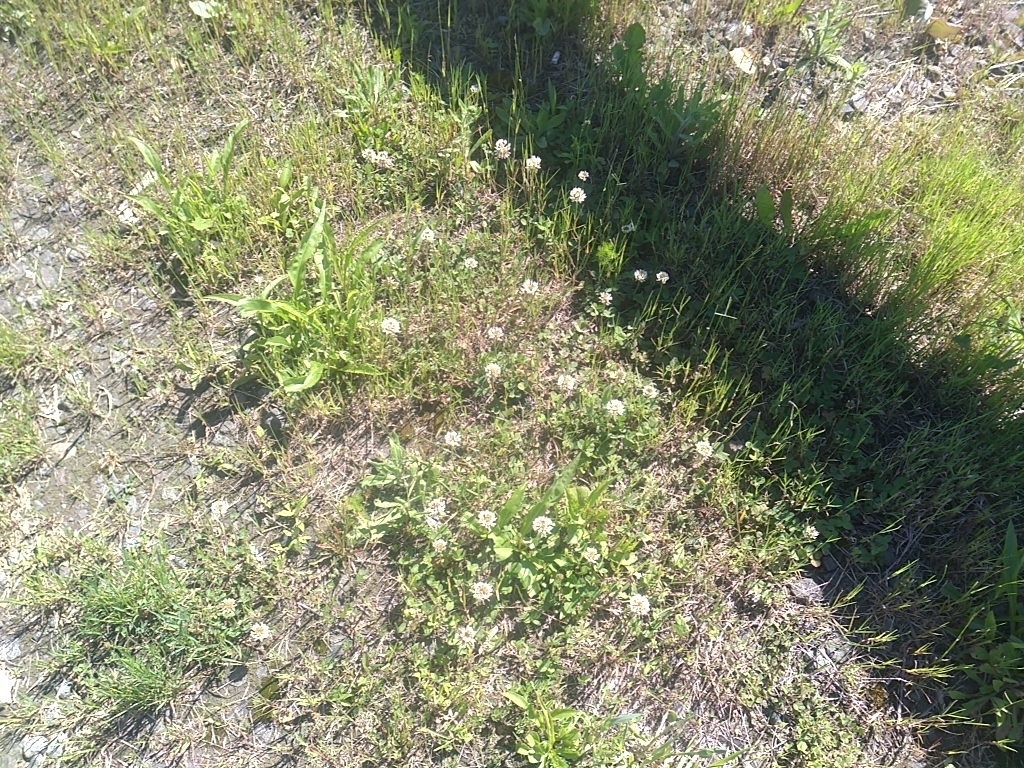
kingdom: Plantae
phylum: Tracheophyta
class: Magnoliopsida
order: Fabales
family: Fabaceae
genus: Trifolium
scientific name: Trifolium repens
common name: White clover
